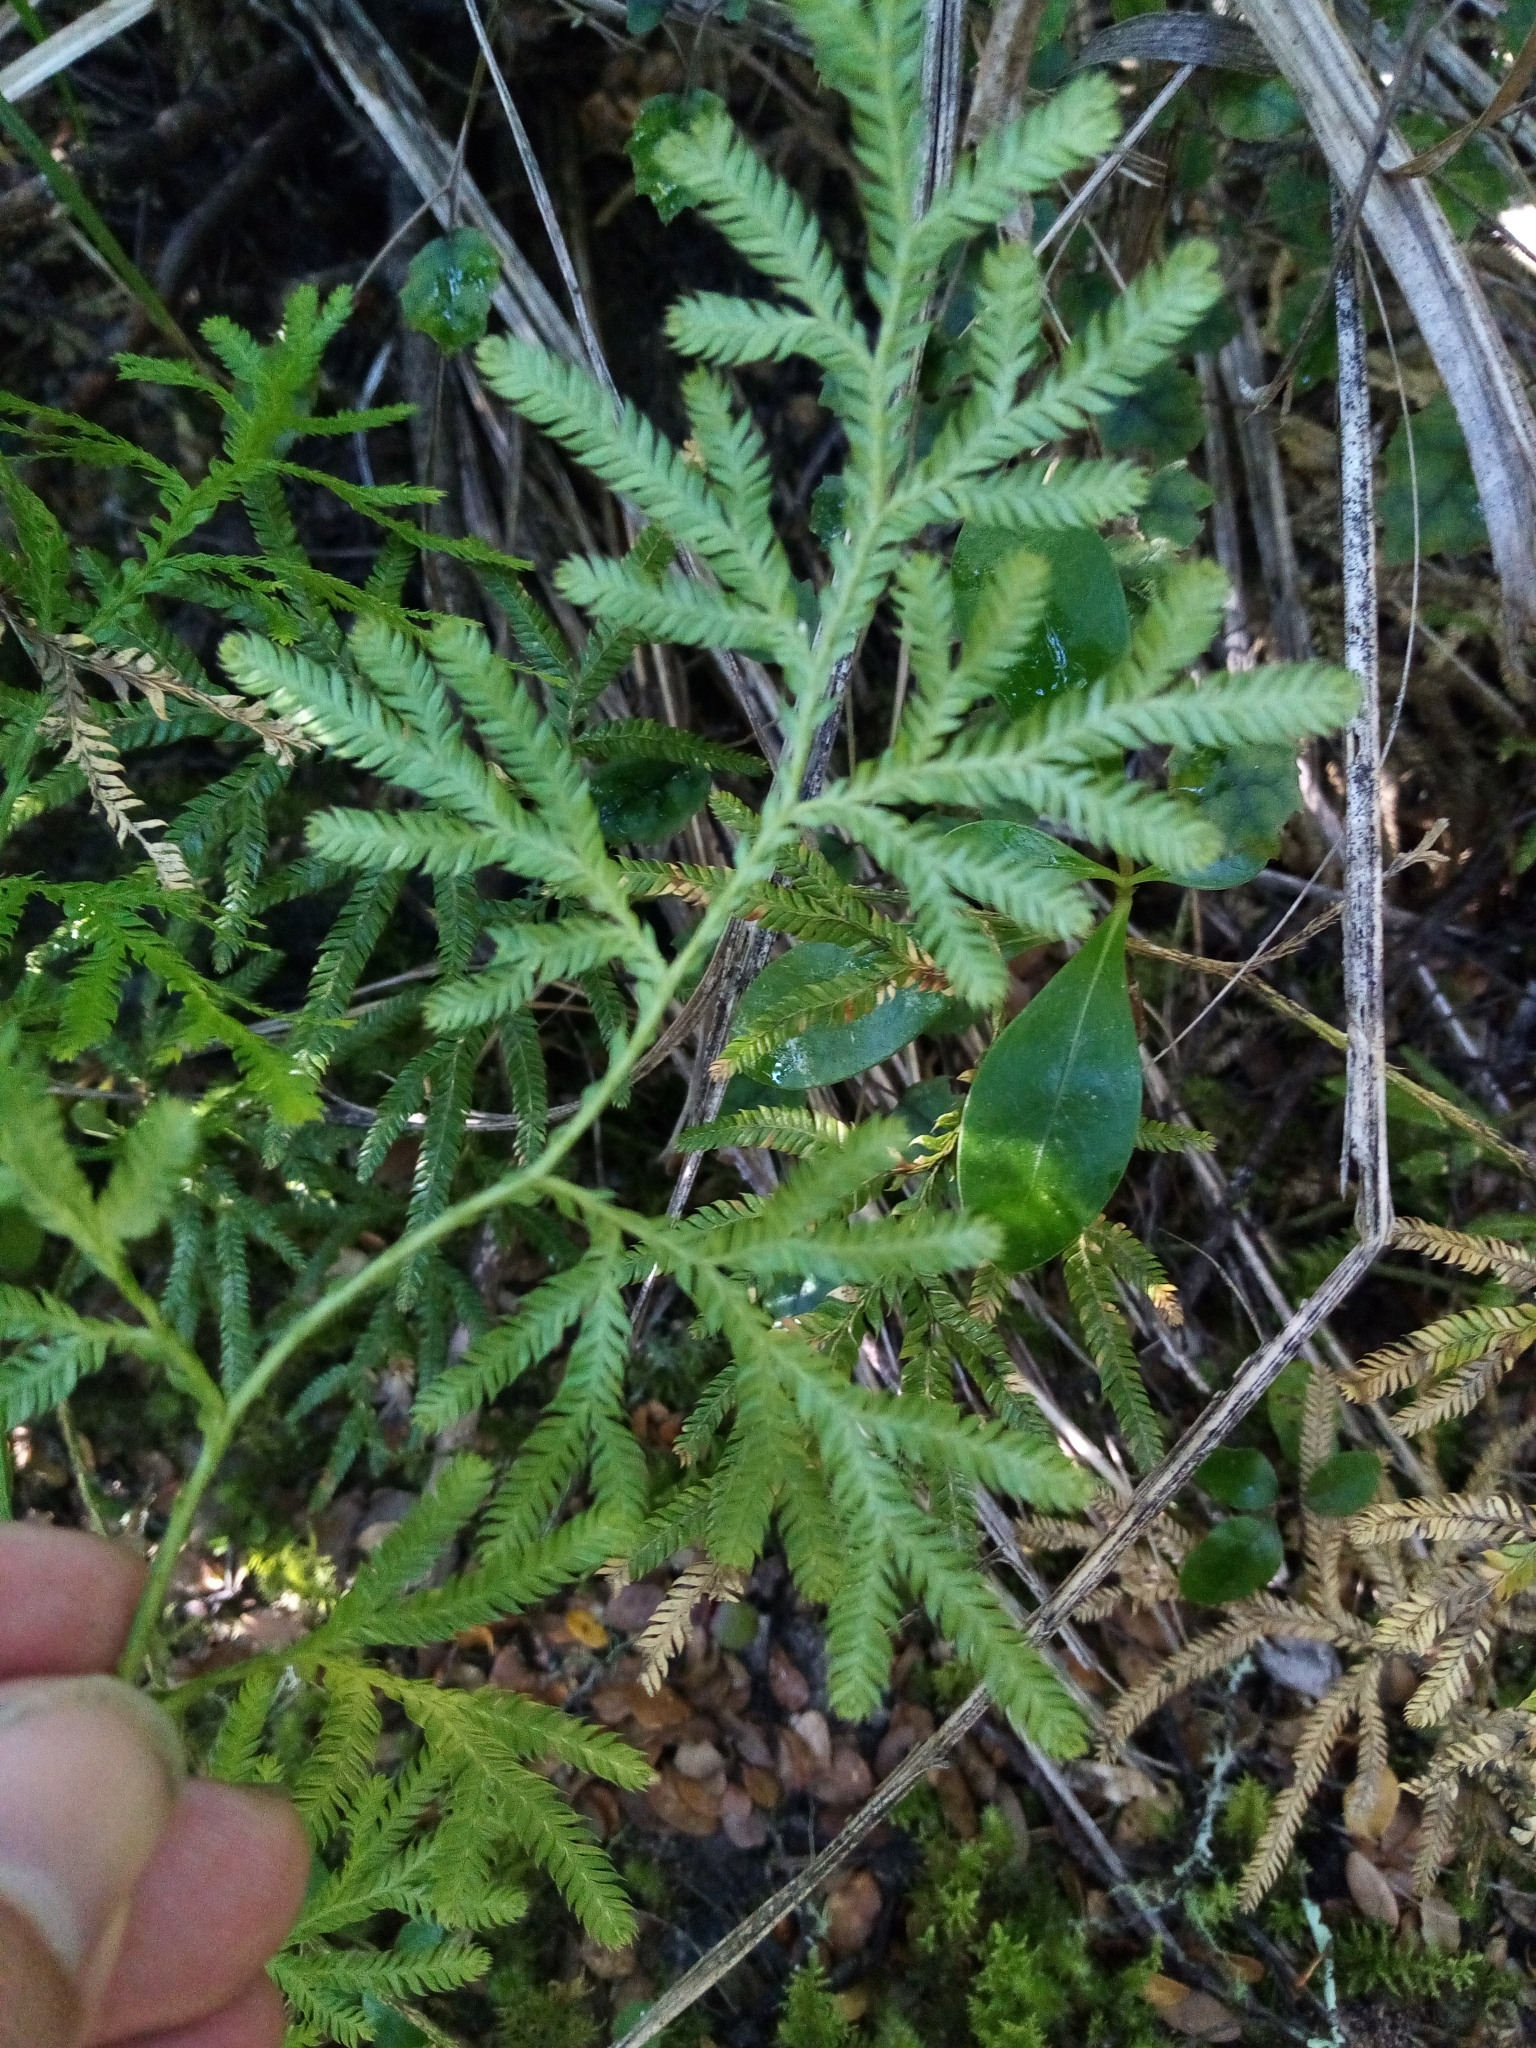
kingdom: Plantae
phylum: Tracheophyta
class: Lycopodiopsida
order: Lycopodiales
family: Lycopodiaceae
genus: Lycopodium
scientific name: Lycopodium volubile
